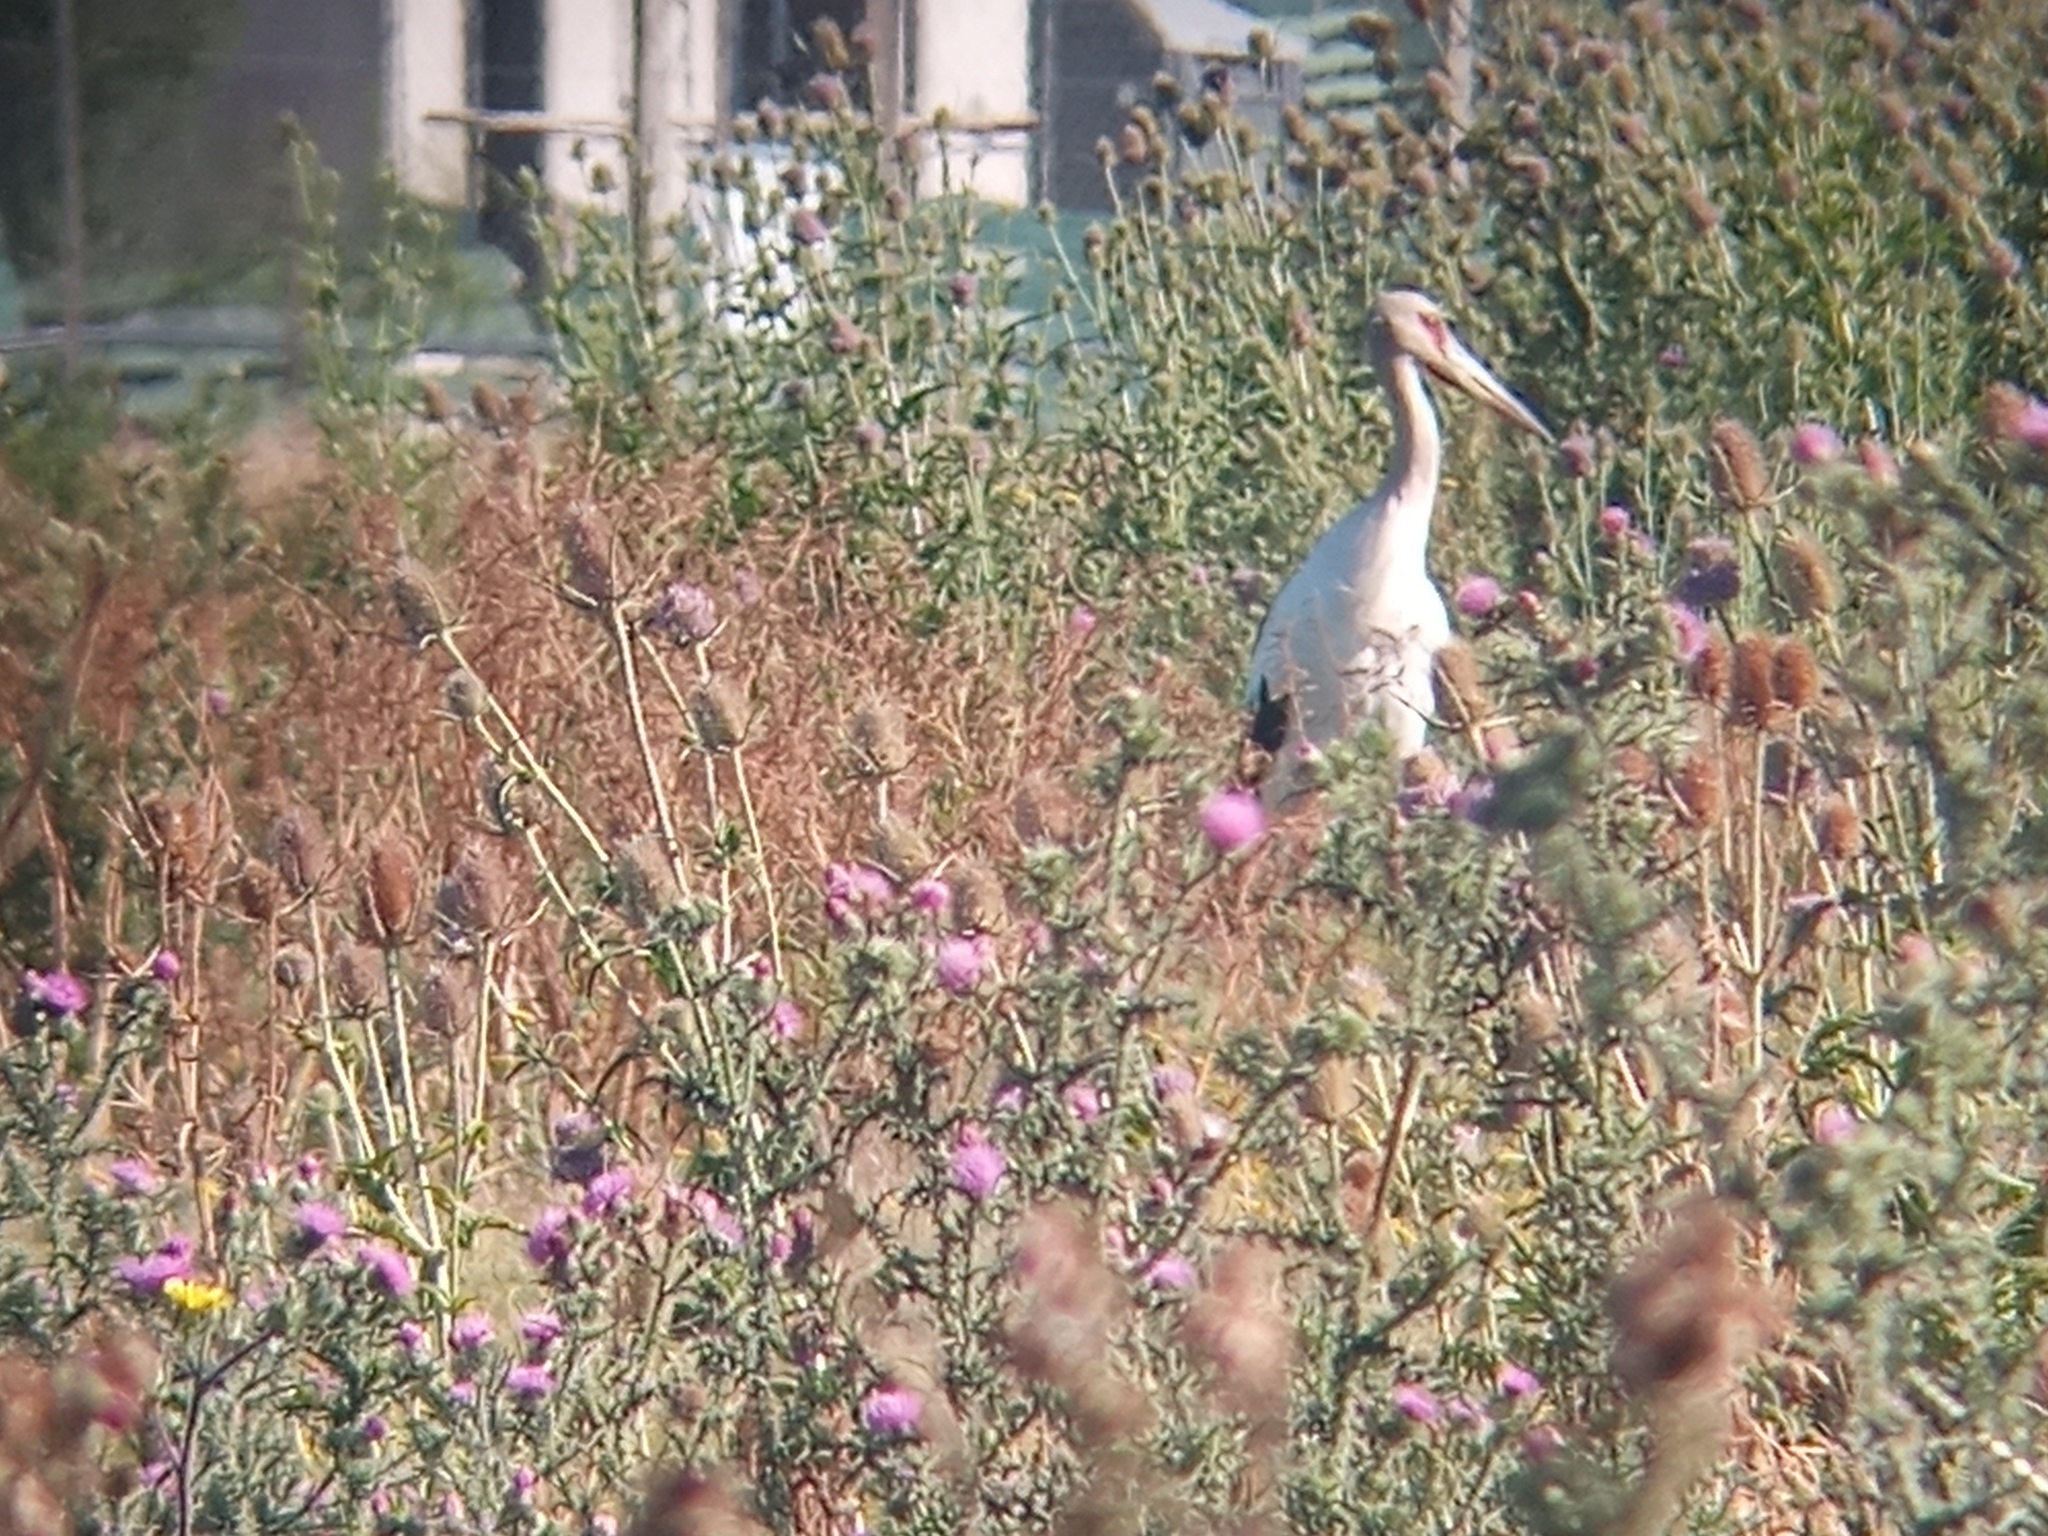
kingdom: Animalia
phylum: Chordata
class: Aves
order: Ciconiiformes
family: Ciconiidae
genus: Ciconia
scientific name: Ciconia maguari
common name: Maguari stork
